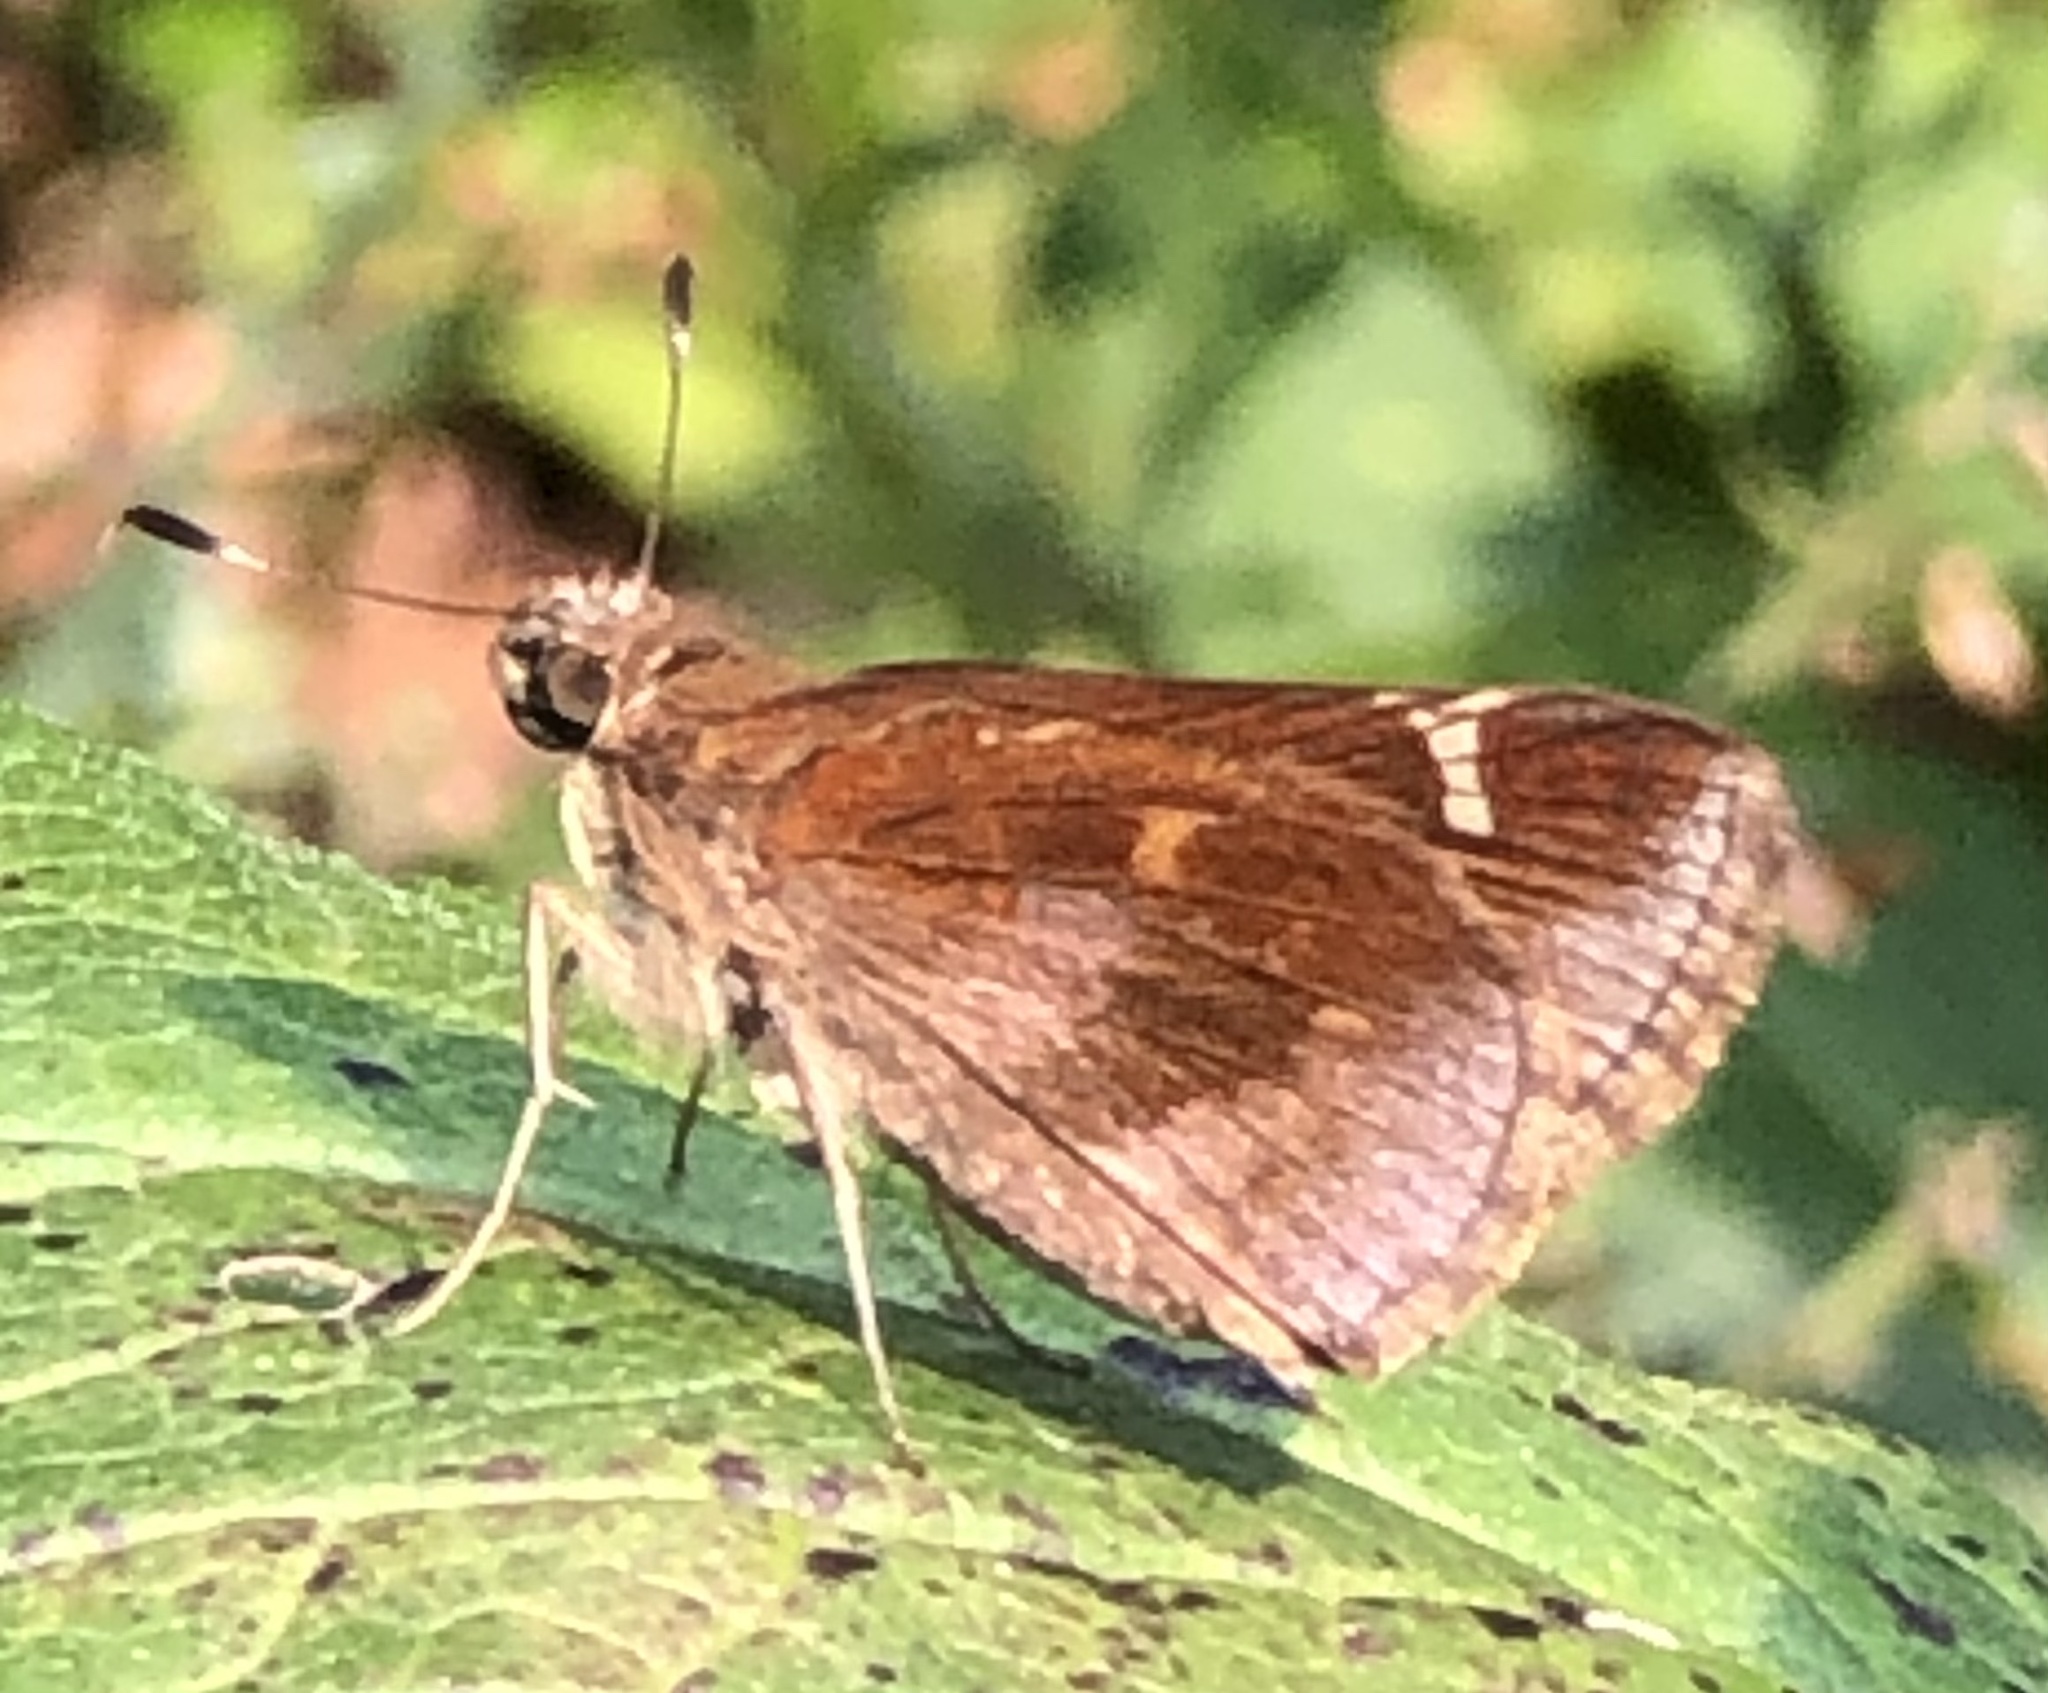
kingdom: Animalia
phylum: Arthropoda
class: Insecta
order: Lepidoptera
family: Hesperiidae
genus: Lerema
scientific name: Lerema accius
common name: Clouded skipper
